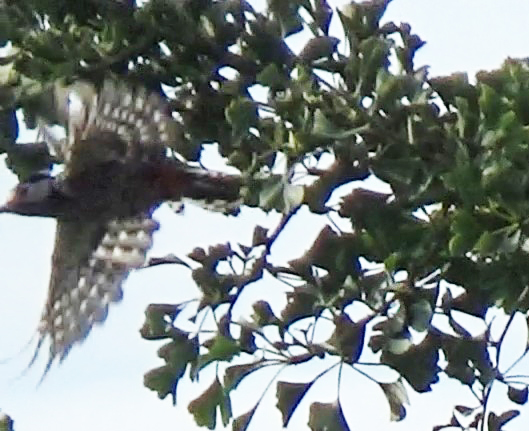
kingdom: Animalia
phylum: Chordata
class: Aves
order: Piciformes
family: Picidae
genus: Dendrocopos
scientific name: Dendrocopos major
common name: Great spotted woodpecker
